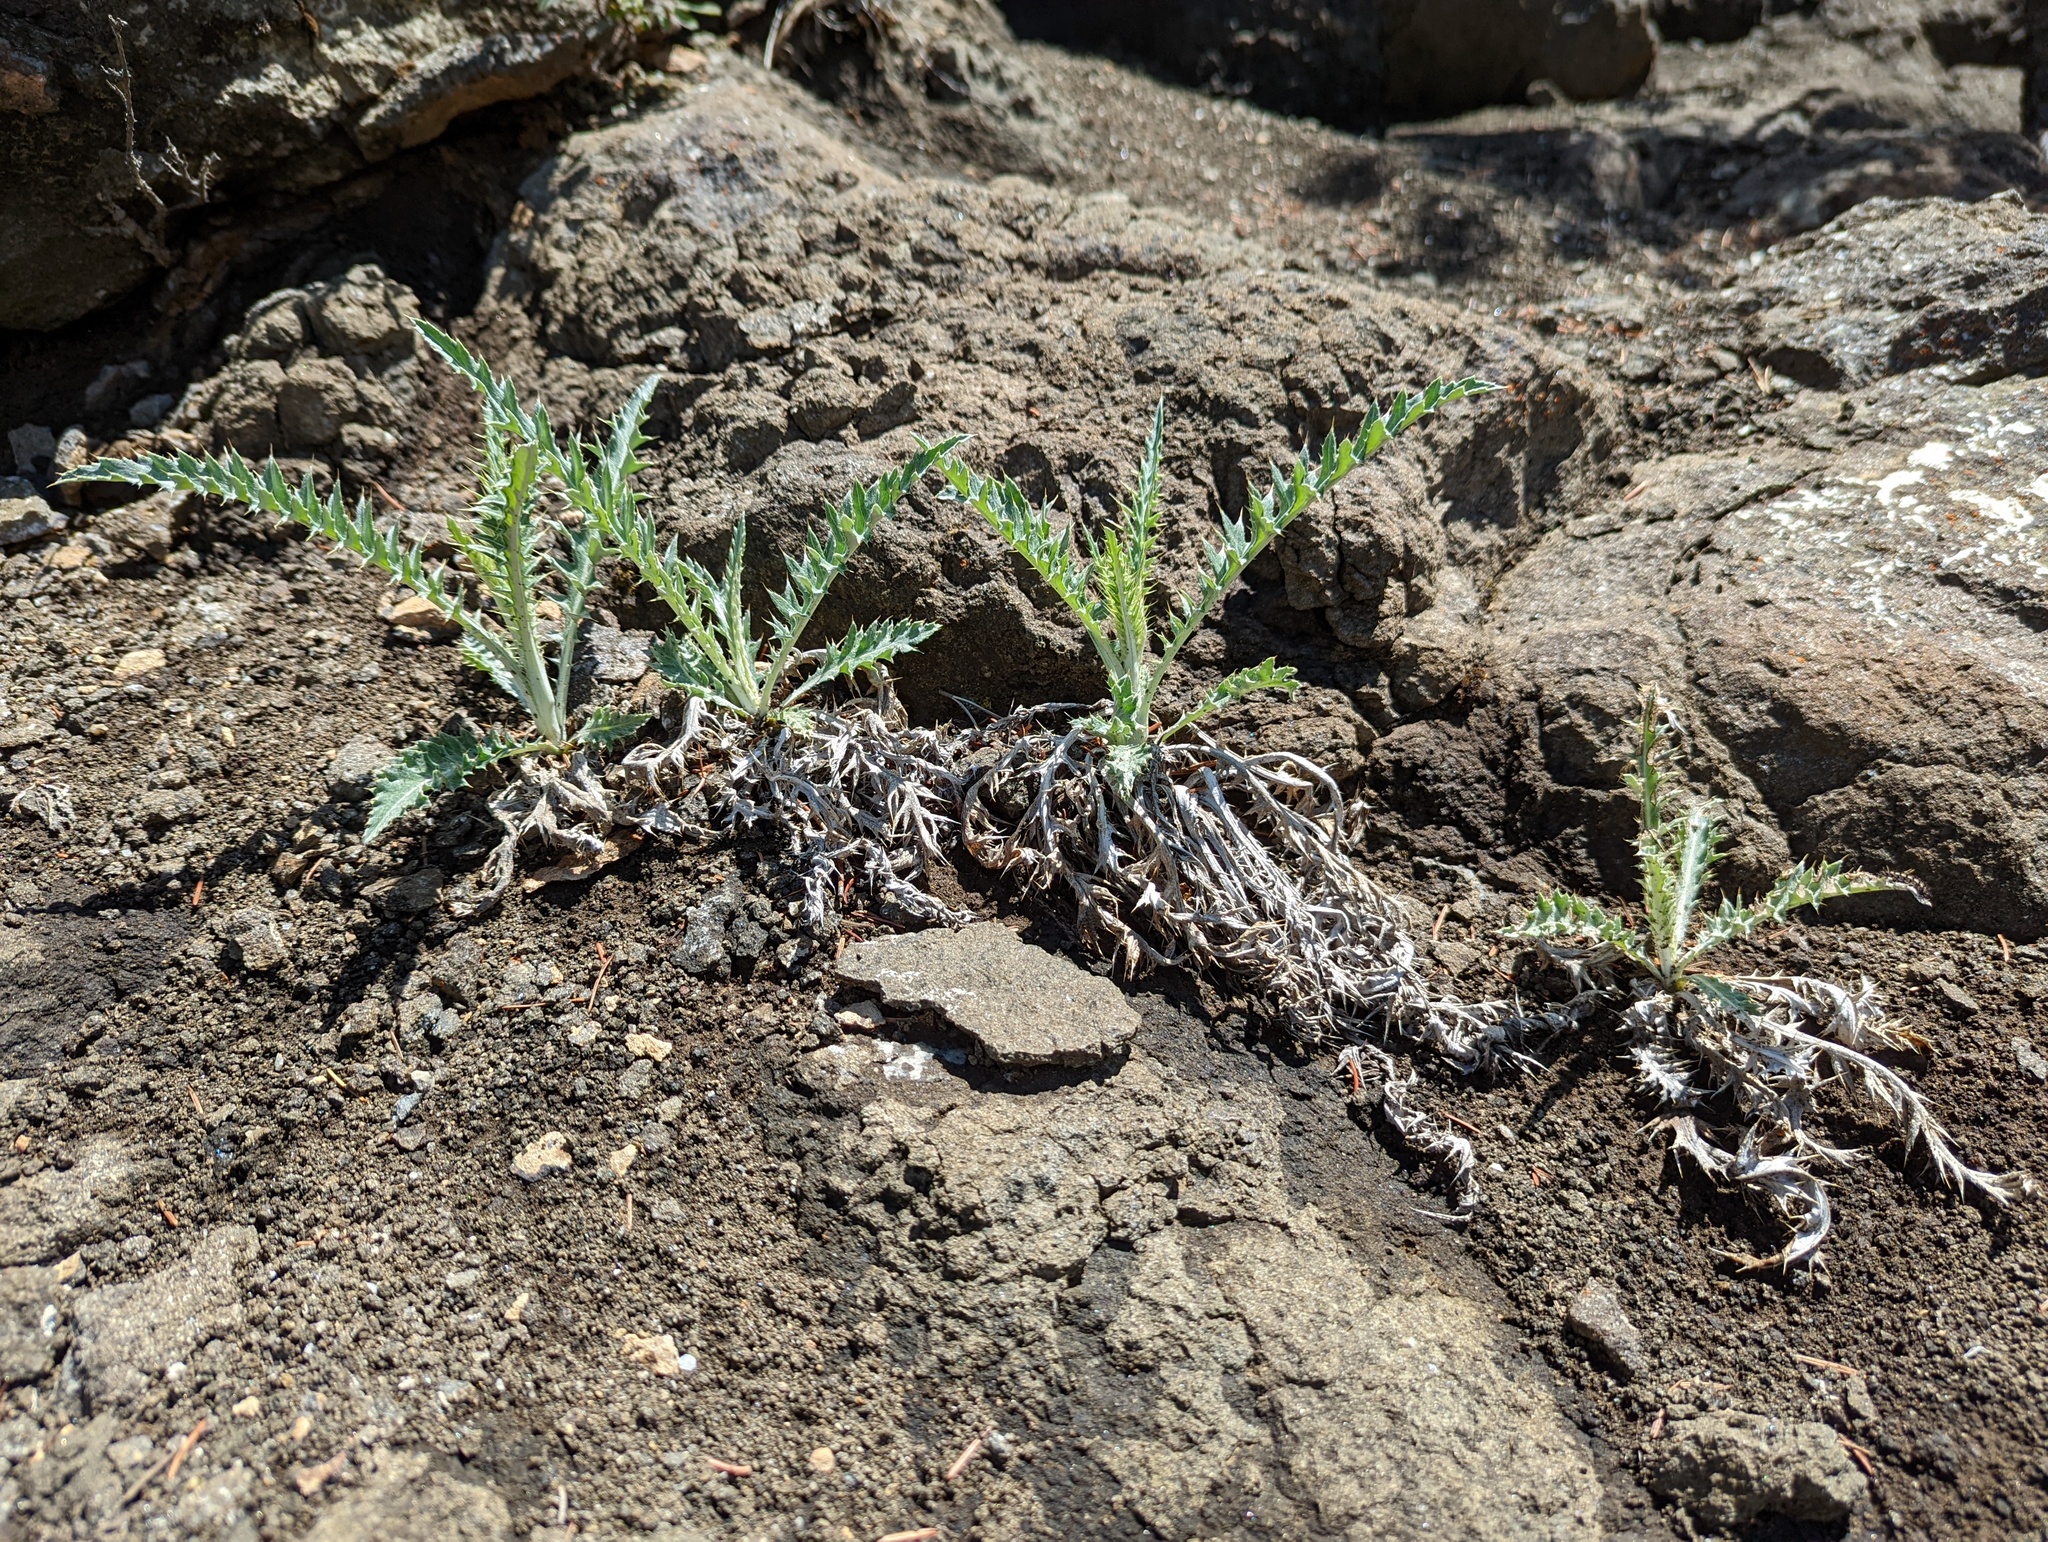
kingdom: Plantae
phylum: Tracheophyta
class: Magnoliopsida
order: Asterales
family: Asteraceae
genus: Cirsium
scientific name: Cirsium undulatum
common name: Pasture thistle
